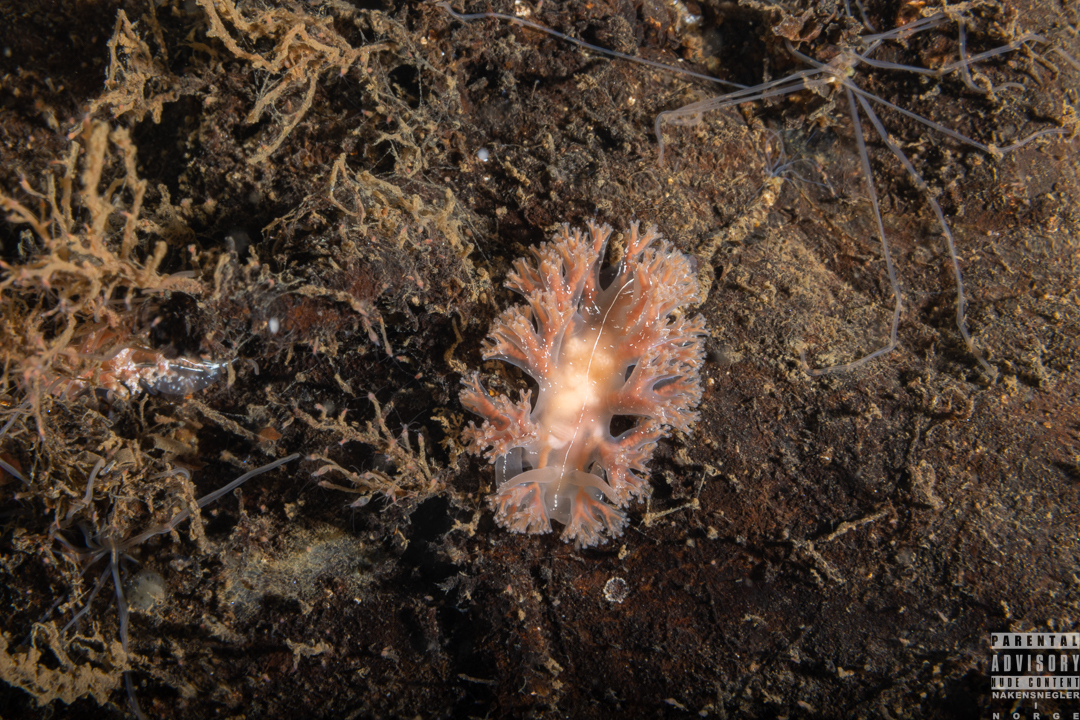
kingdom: Animalia
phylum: Mollusca
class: Gastropoda
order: Nudibranchia
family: Heroidae
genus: Hero
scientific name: Hero formosa
